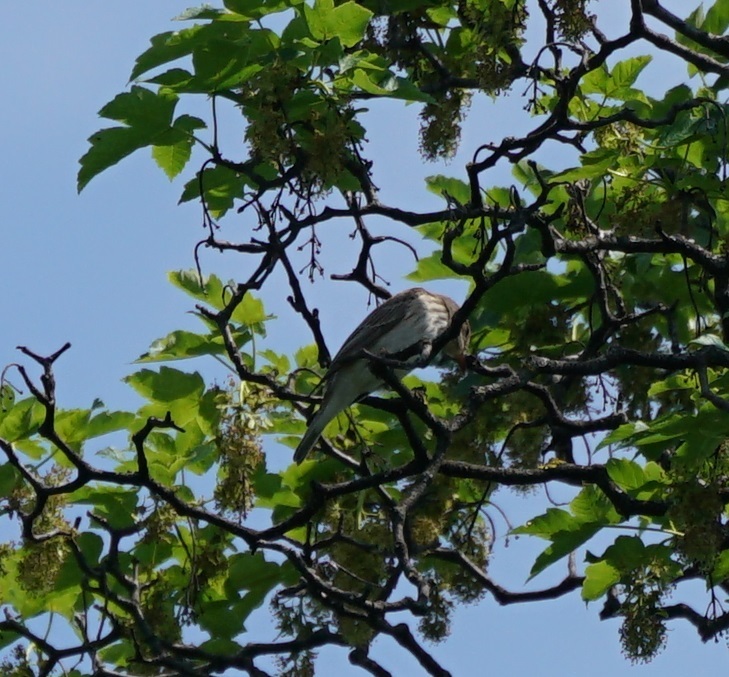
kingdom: Animalia
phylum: Chordata
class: Aves
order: Passeriformes
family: Muscicapidae
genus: Muscicapa
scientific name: Muscicapa striata
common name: Spotted flycatcher
